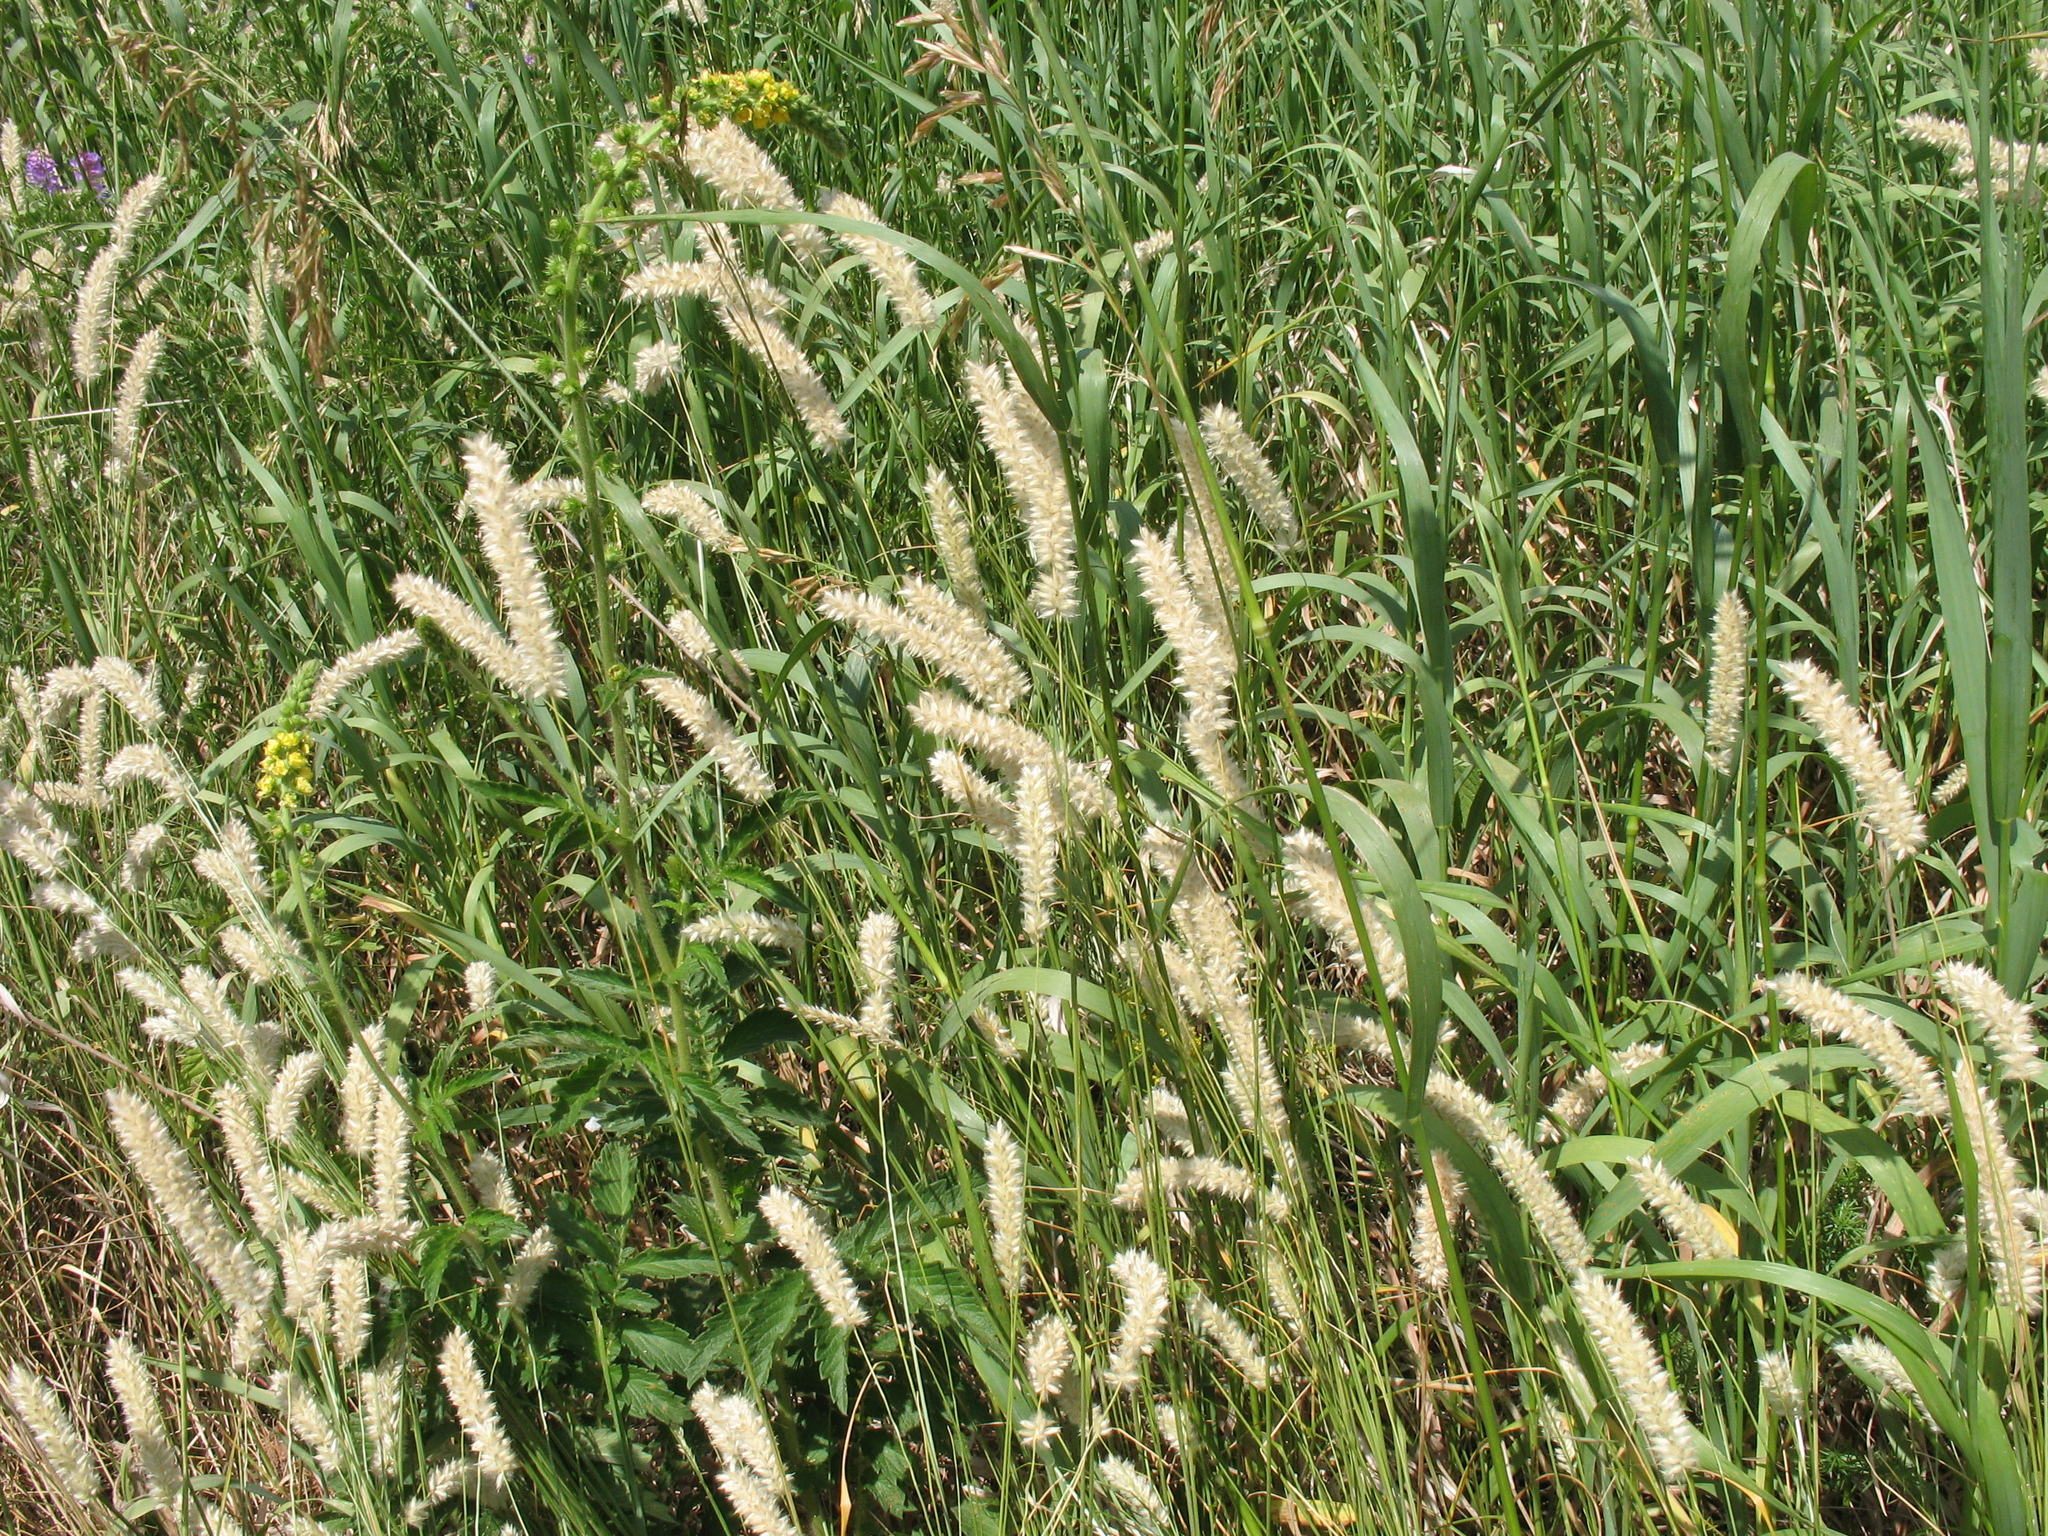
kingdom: Plantae
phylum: Tracheophyta
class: Liliopsida
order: Poales
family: Poaceae
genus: Melica
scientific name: Melica transsilvanica
